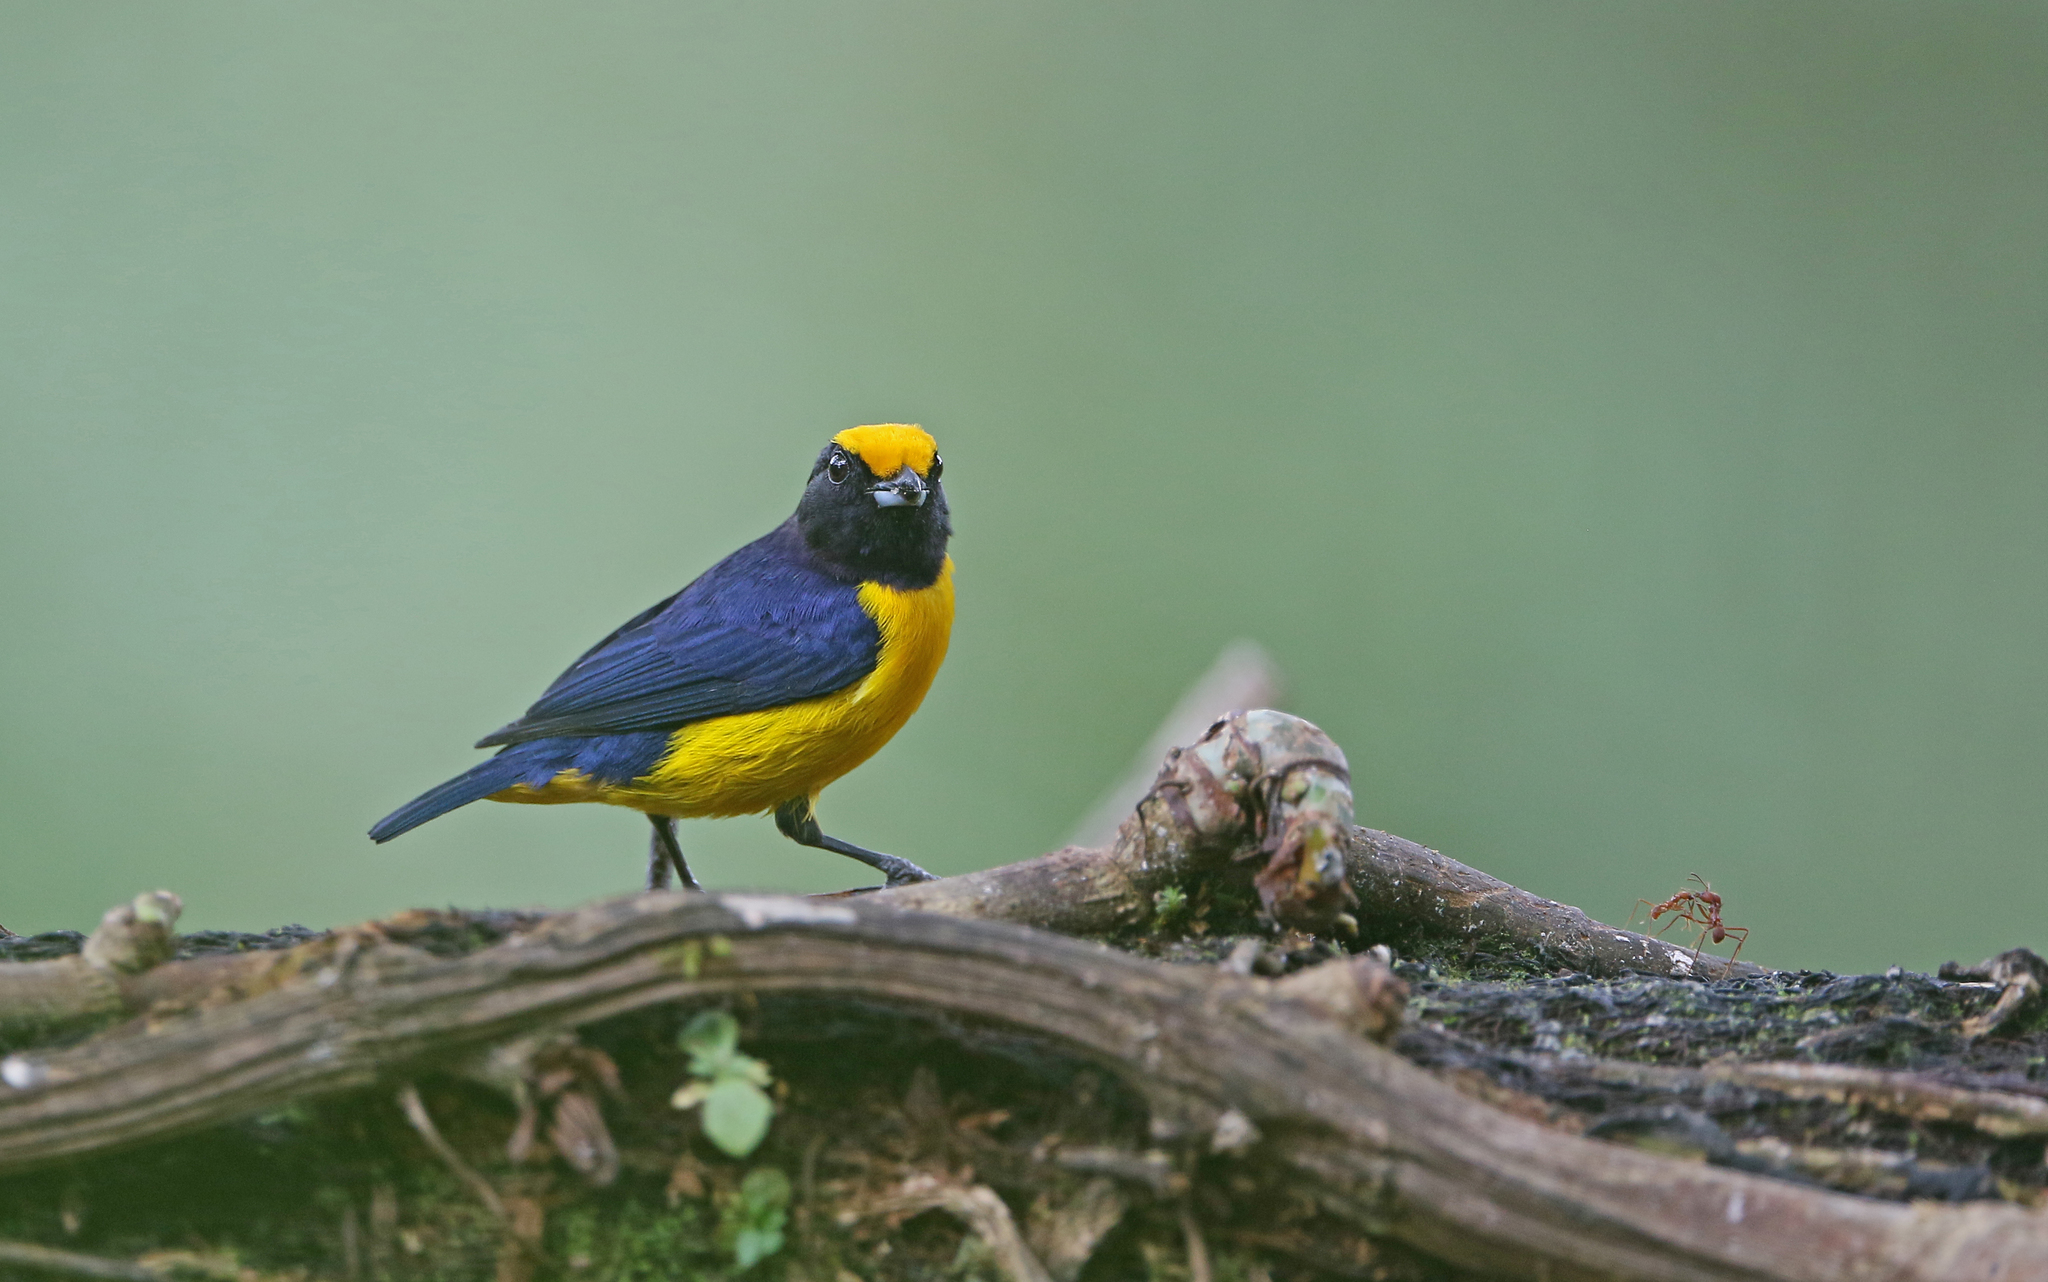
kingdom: Animalia
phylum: Chordata
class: Aves
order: Passeriformes
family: Fringillidae
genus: Euphonia
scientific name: Euphonia xanthogaster
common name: Orange-bellied euphonia
